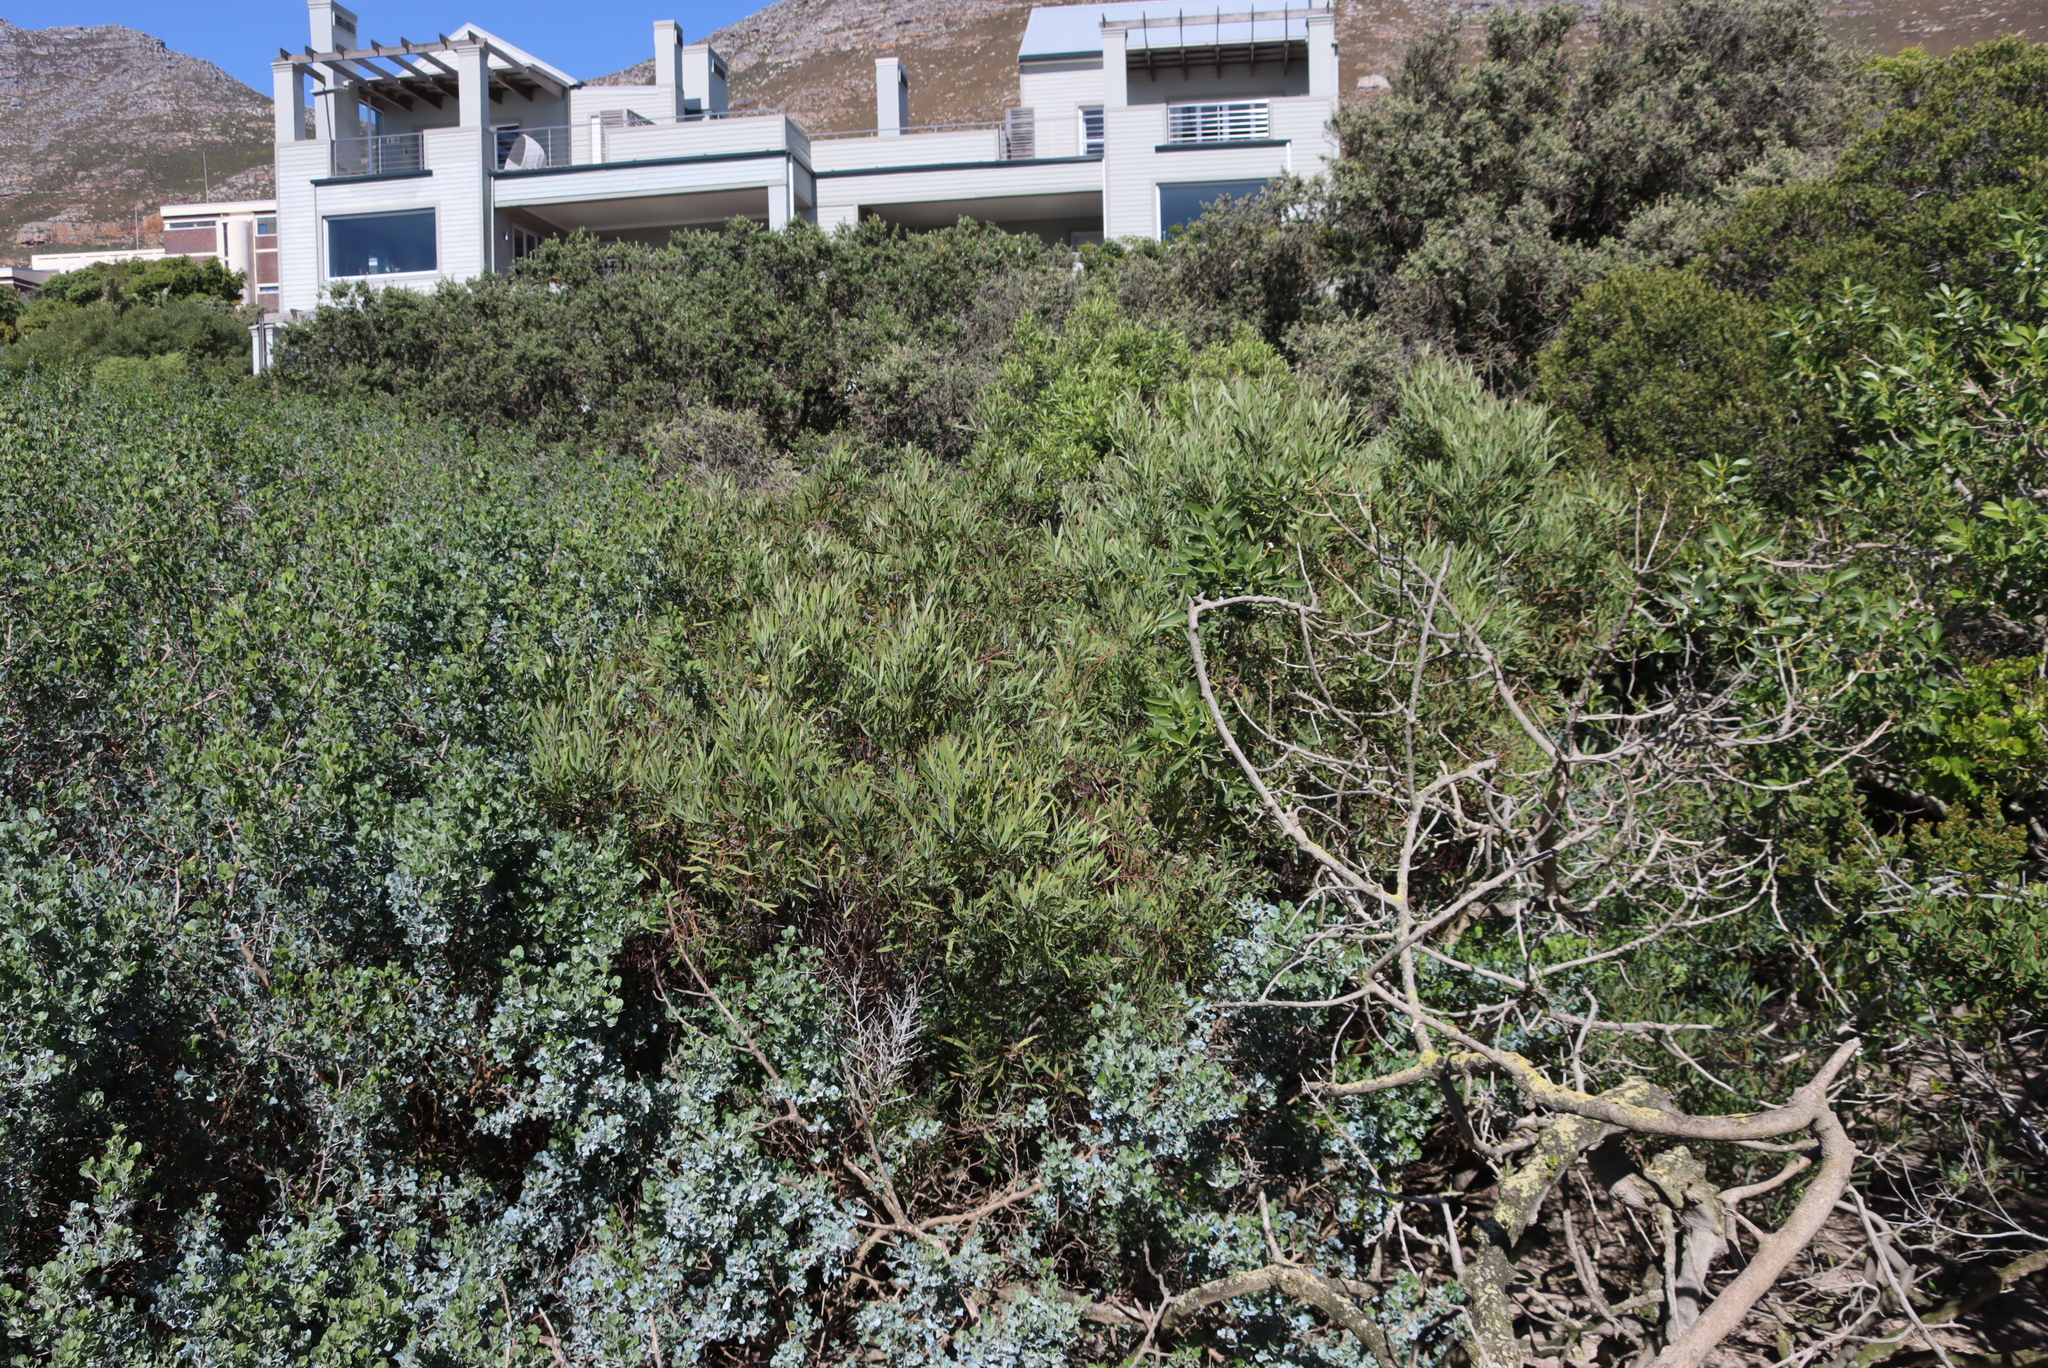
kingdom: Plantae
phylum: Tracheophyta
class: Magnoliopsida
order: Fabales
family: Fabaceae
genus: Acacia
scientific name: Acacia cyclops
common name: Coastal wattle
